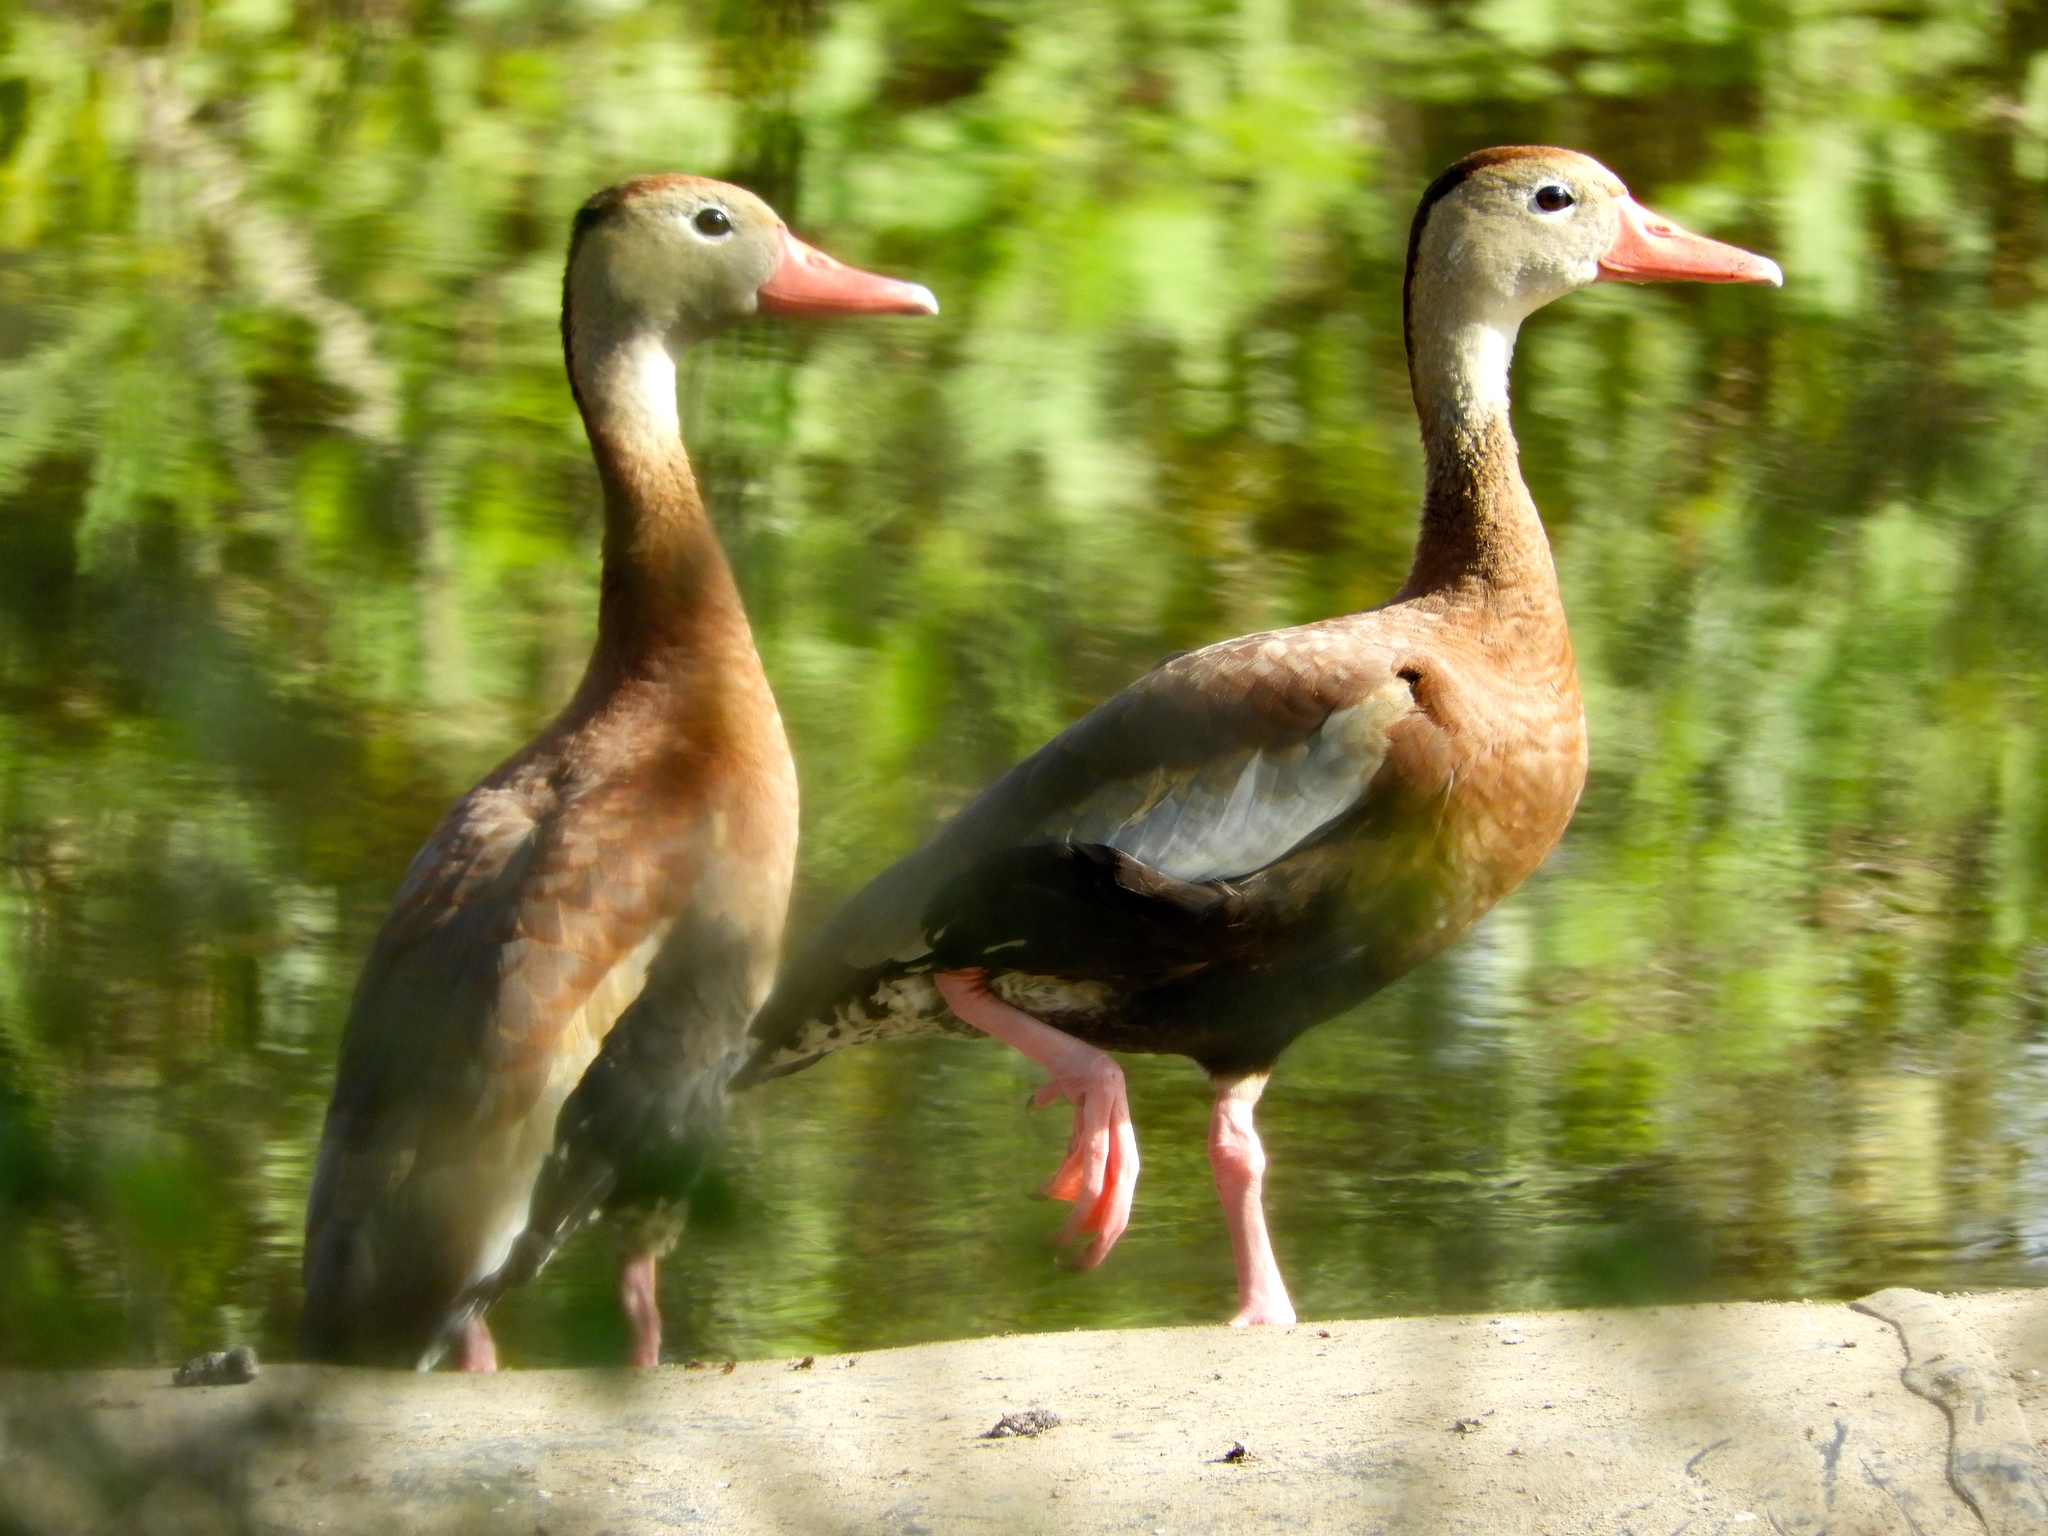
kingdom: Animalia
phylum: Chordata
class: Aves
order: Anseriformes
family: Anatidae
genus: Dendrocygna
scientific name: Dendrocygna autumnalis
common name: Black-bellied whistling duck
